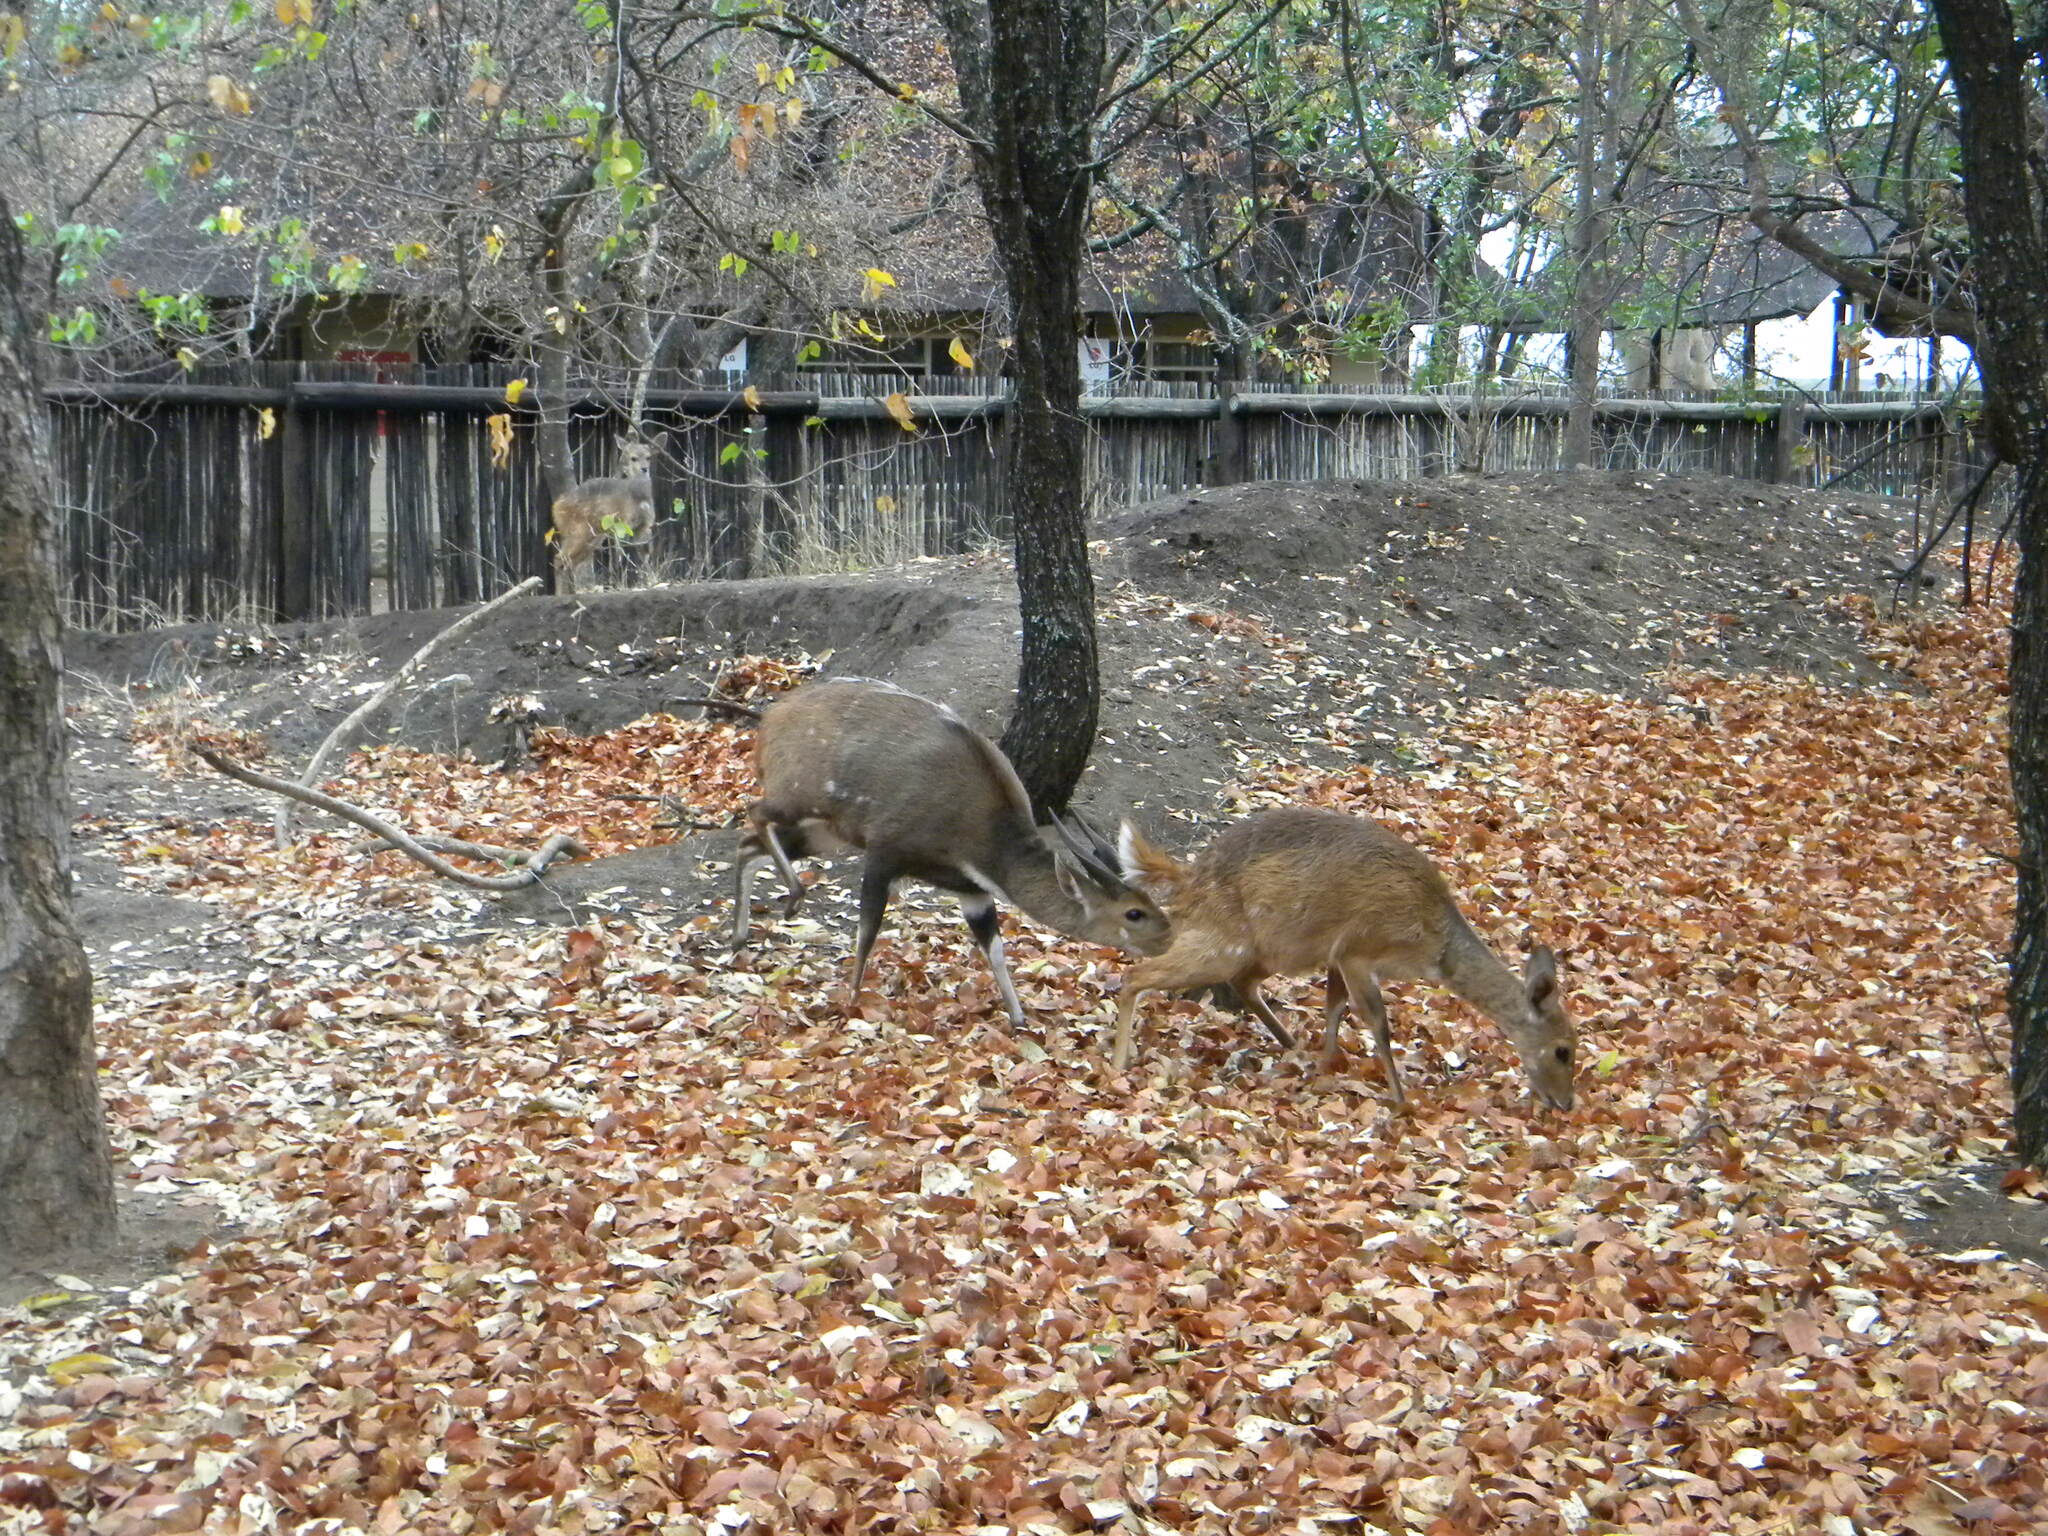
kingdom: Animalia
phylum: Chordata
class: Mammalia
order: Artiodactyla
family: Bovidae
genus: Tragelaphus
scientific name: Tragelaphus scriptus
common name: Bushbuck
